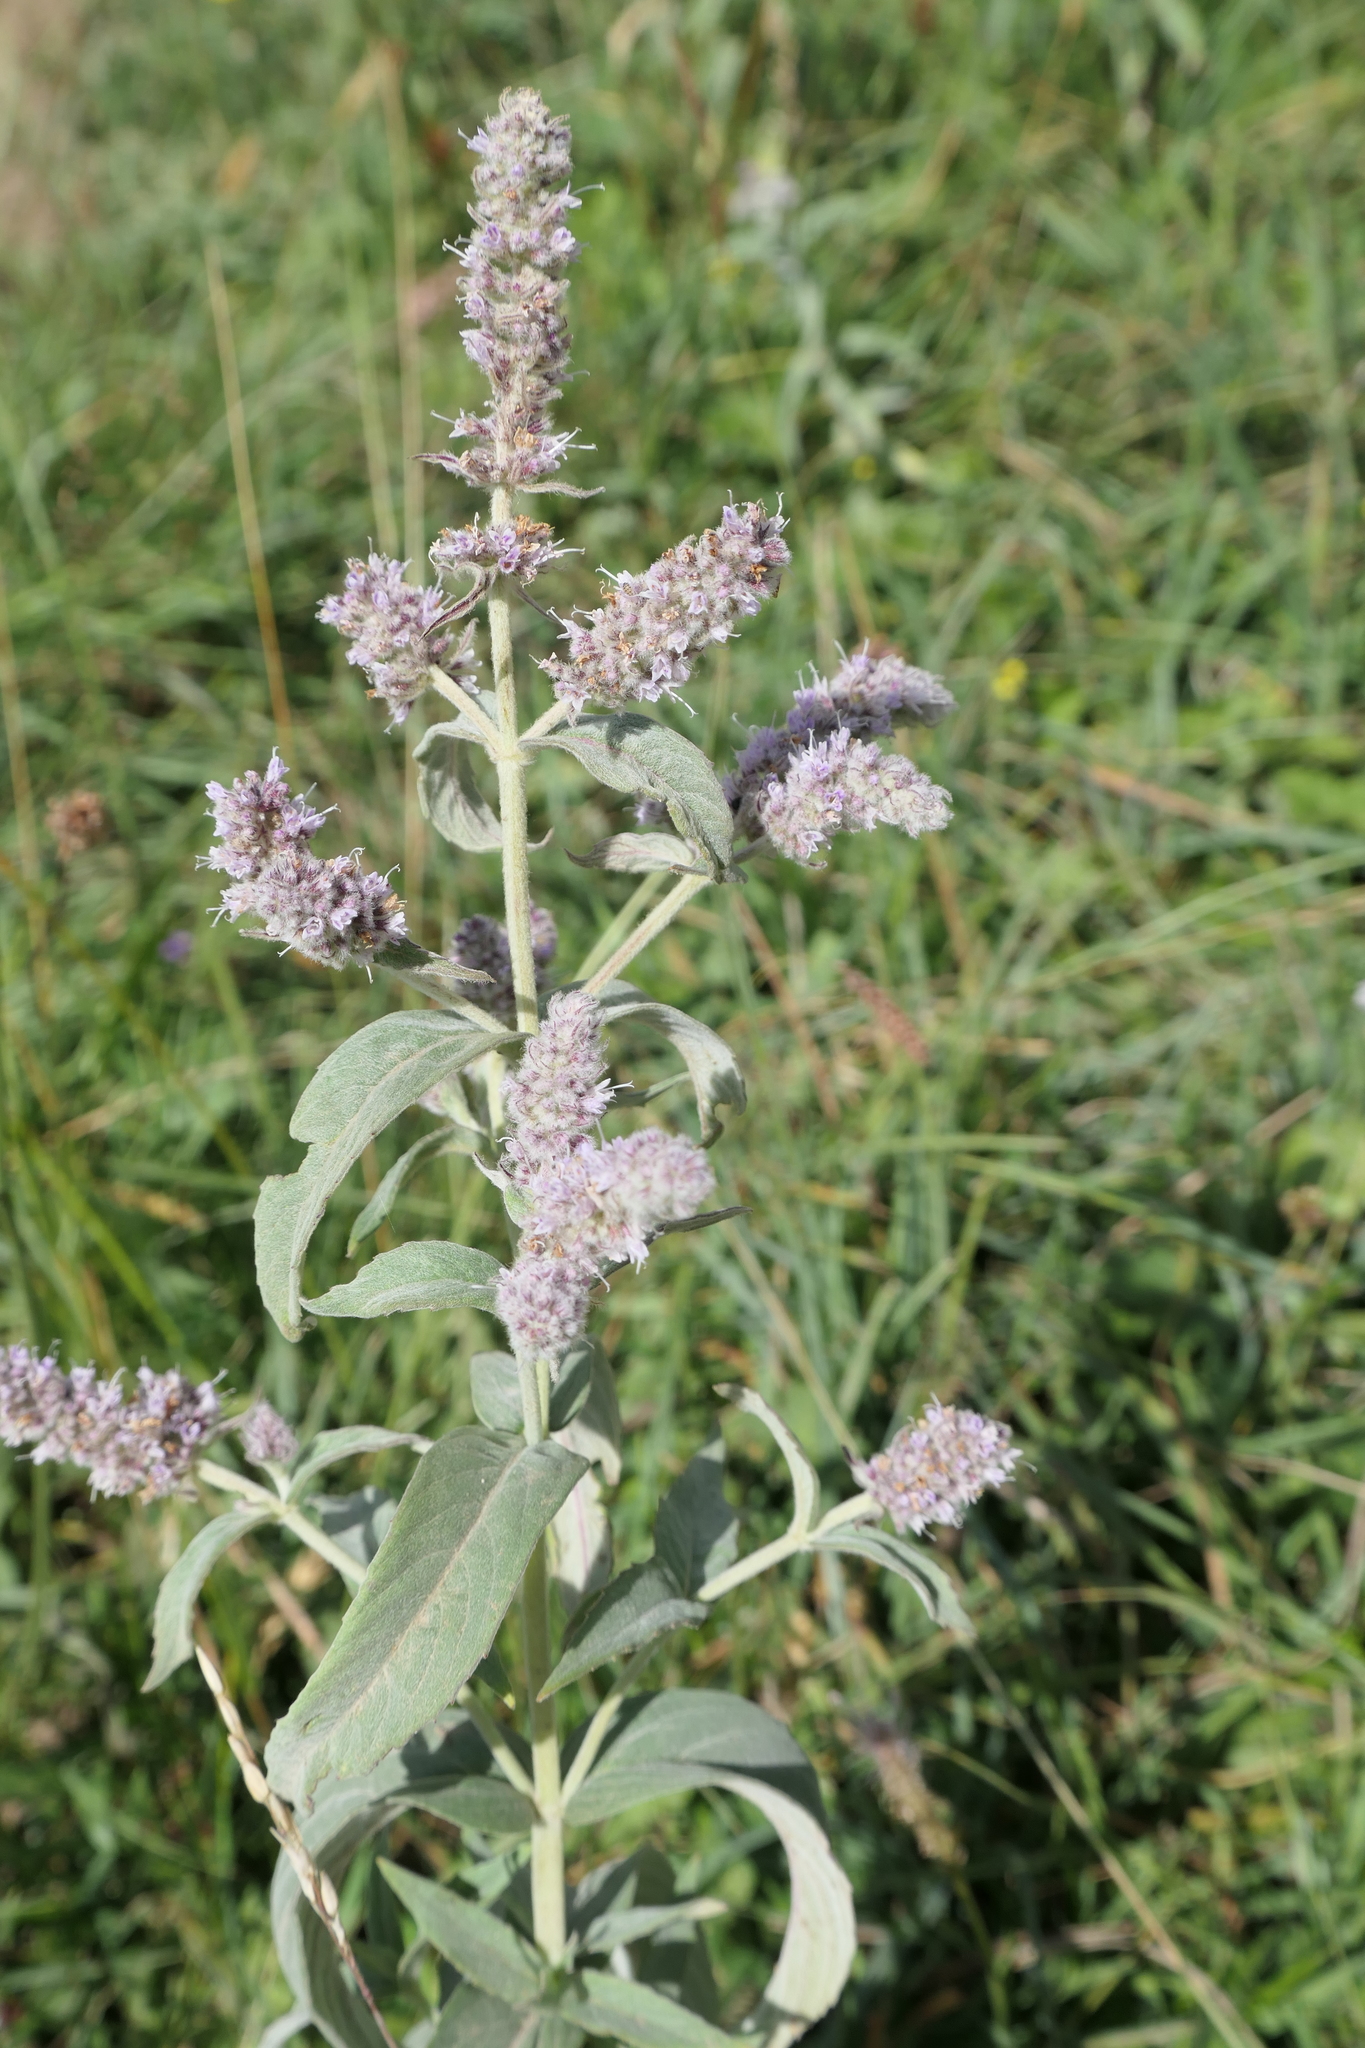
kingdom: Plantae
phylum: Tracheophyta
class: Magnoliopsida
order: Lamiales
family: Lamiaceae
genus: Mentha
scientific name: Mentha longifolia
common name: Horse mint
